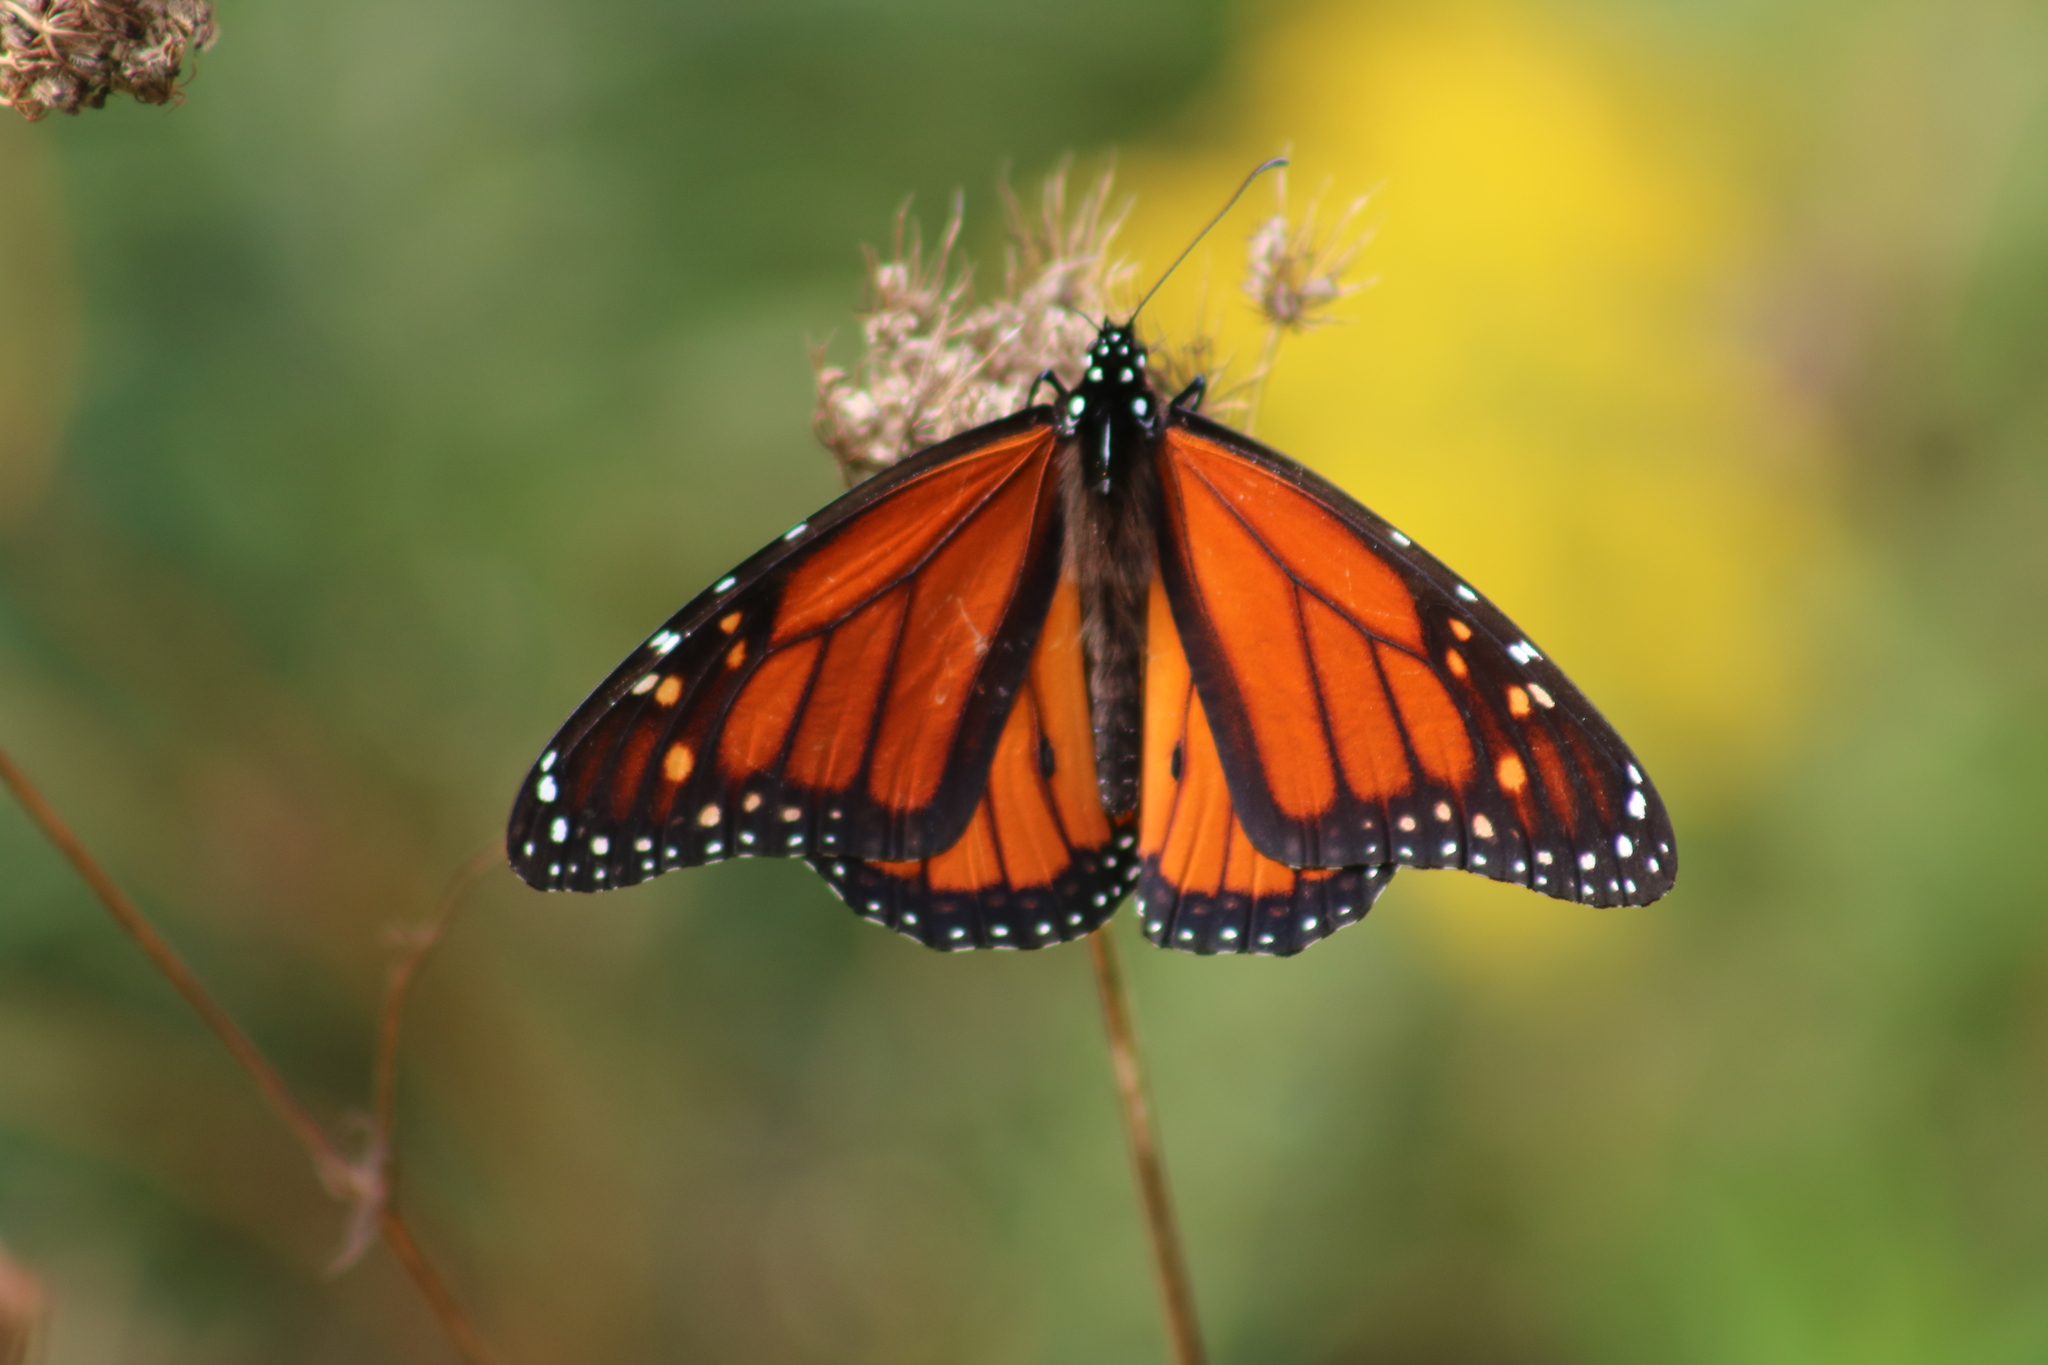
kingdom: Animalia
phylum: Arthropoda
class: Insecta
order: Lepidoptera
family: Nymphalidae
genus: Danaus
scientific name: Danaus plexippus
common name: Monarch
